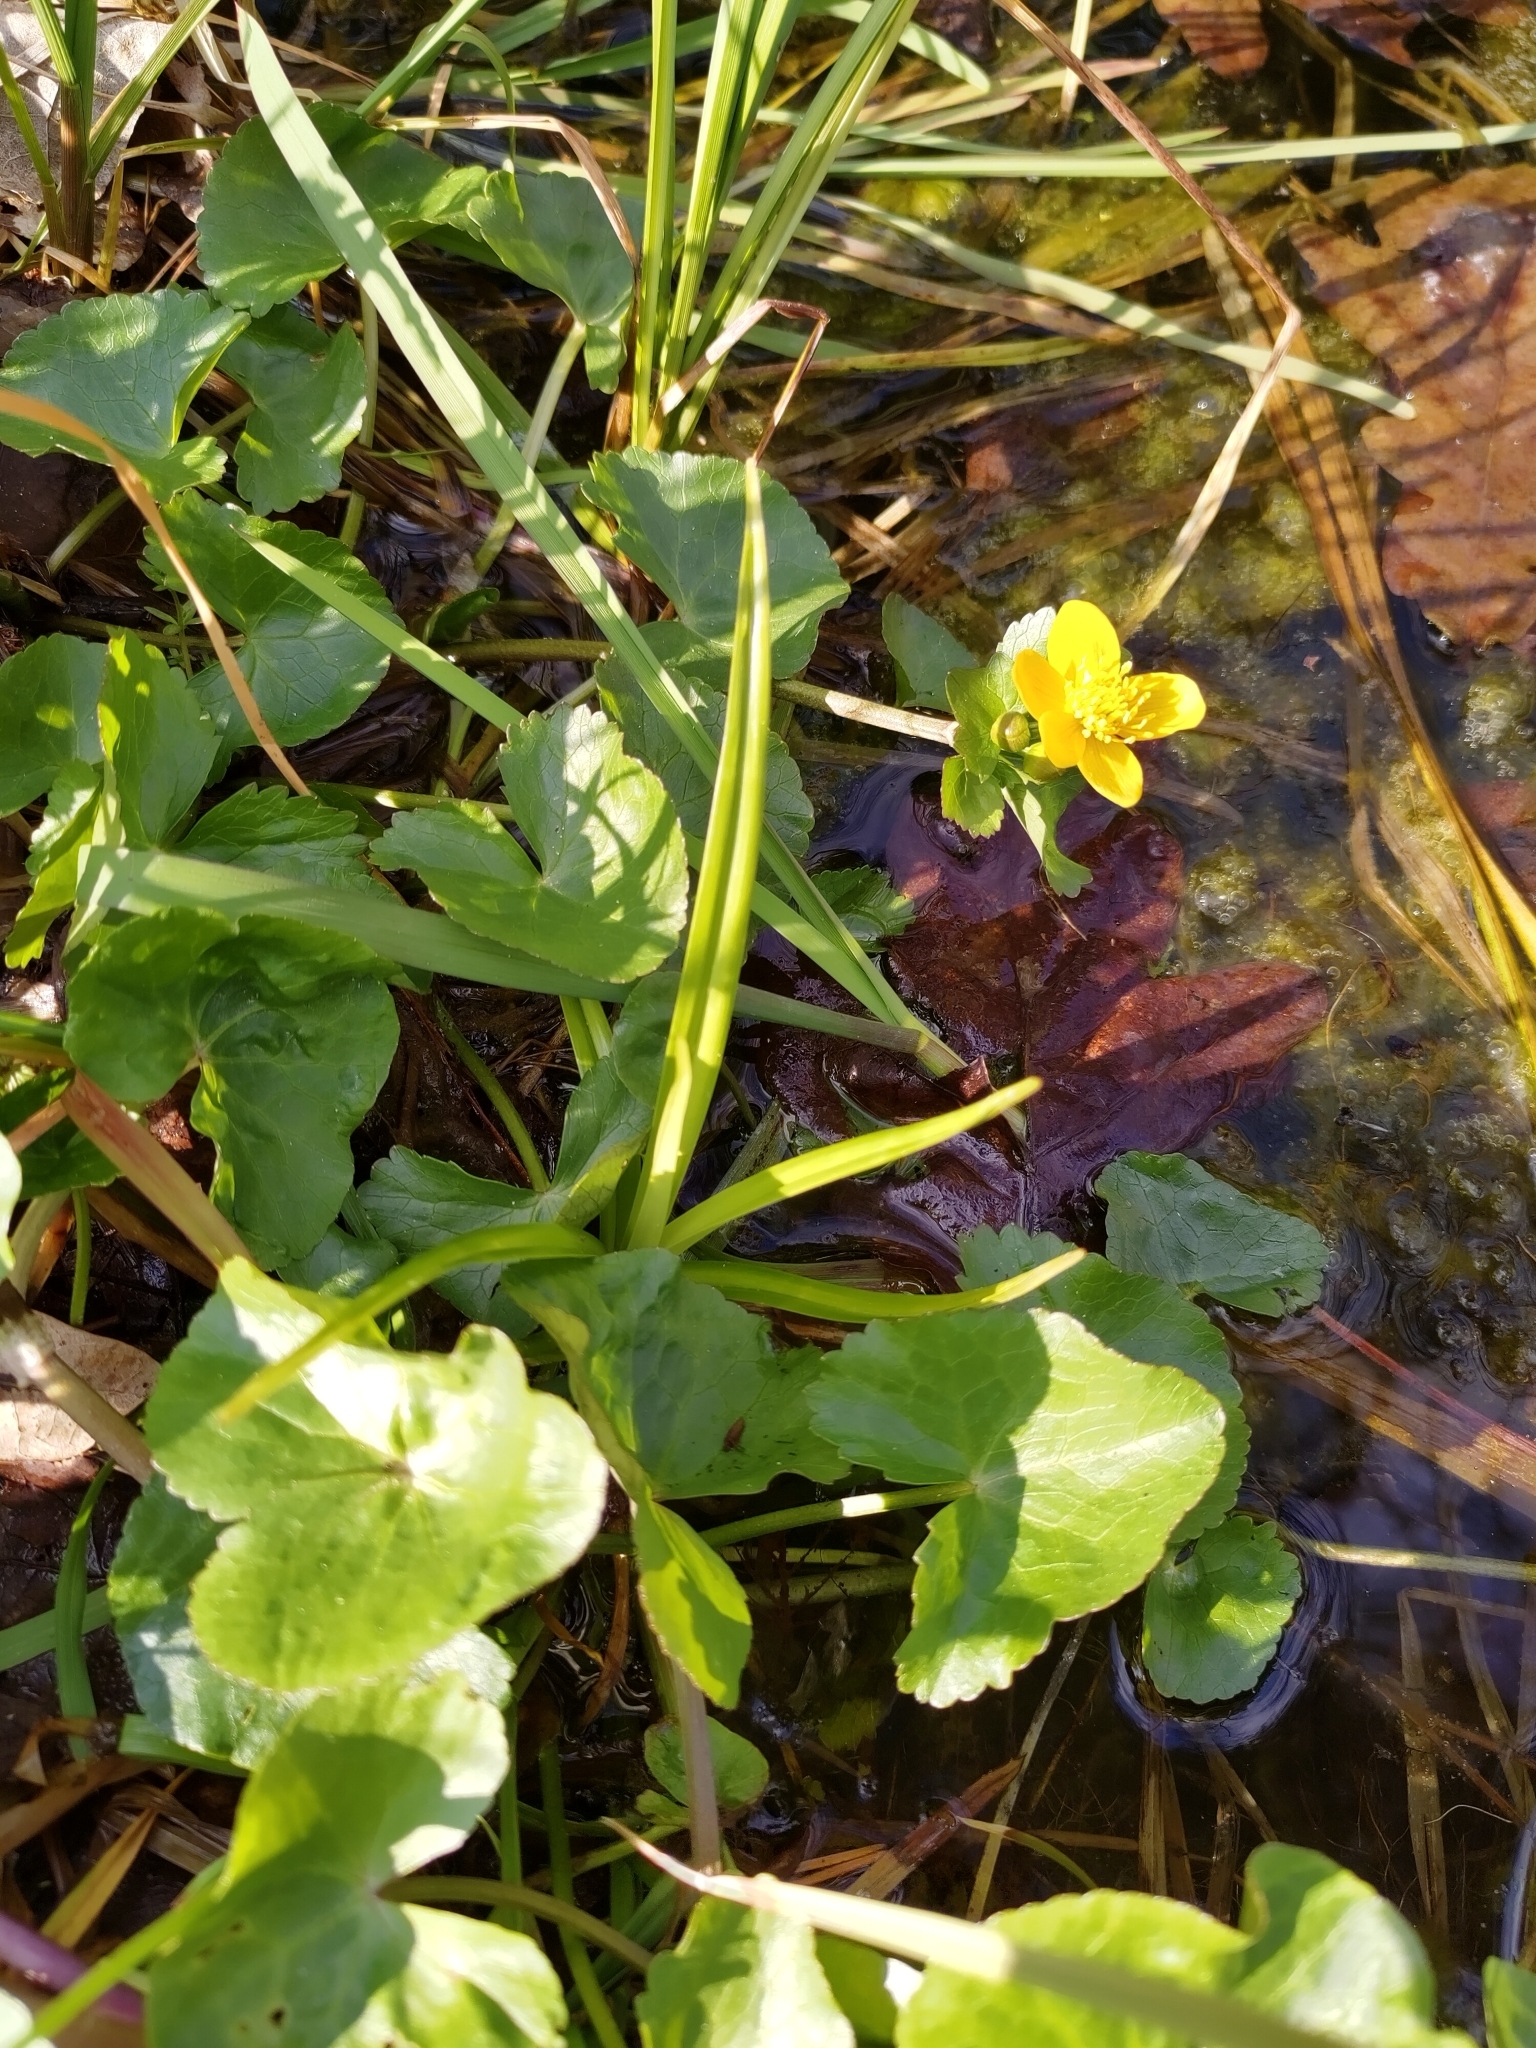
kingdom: Plantae
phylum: Tracheophyta
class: Magnoliopsida
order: Ranunculales
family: Ranunculaceae
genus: Caltha
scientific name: Caltha palustris
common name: Marsh marigold
